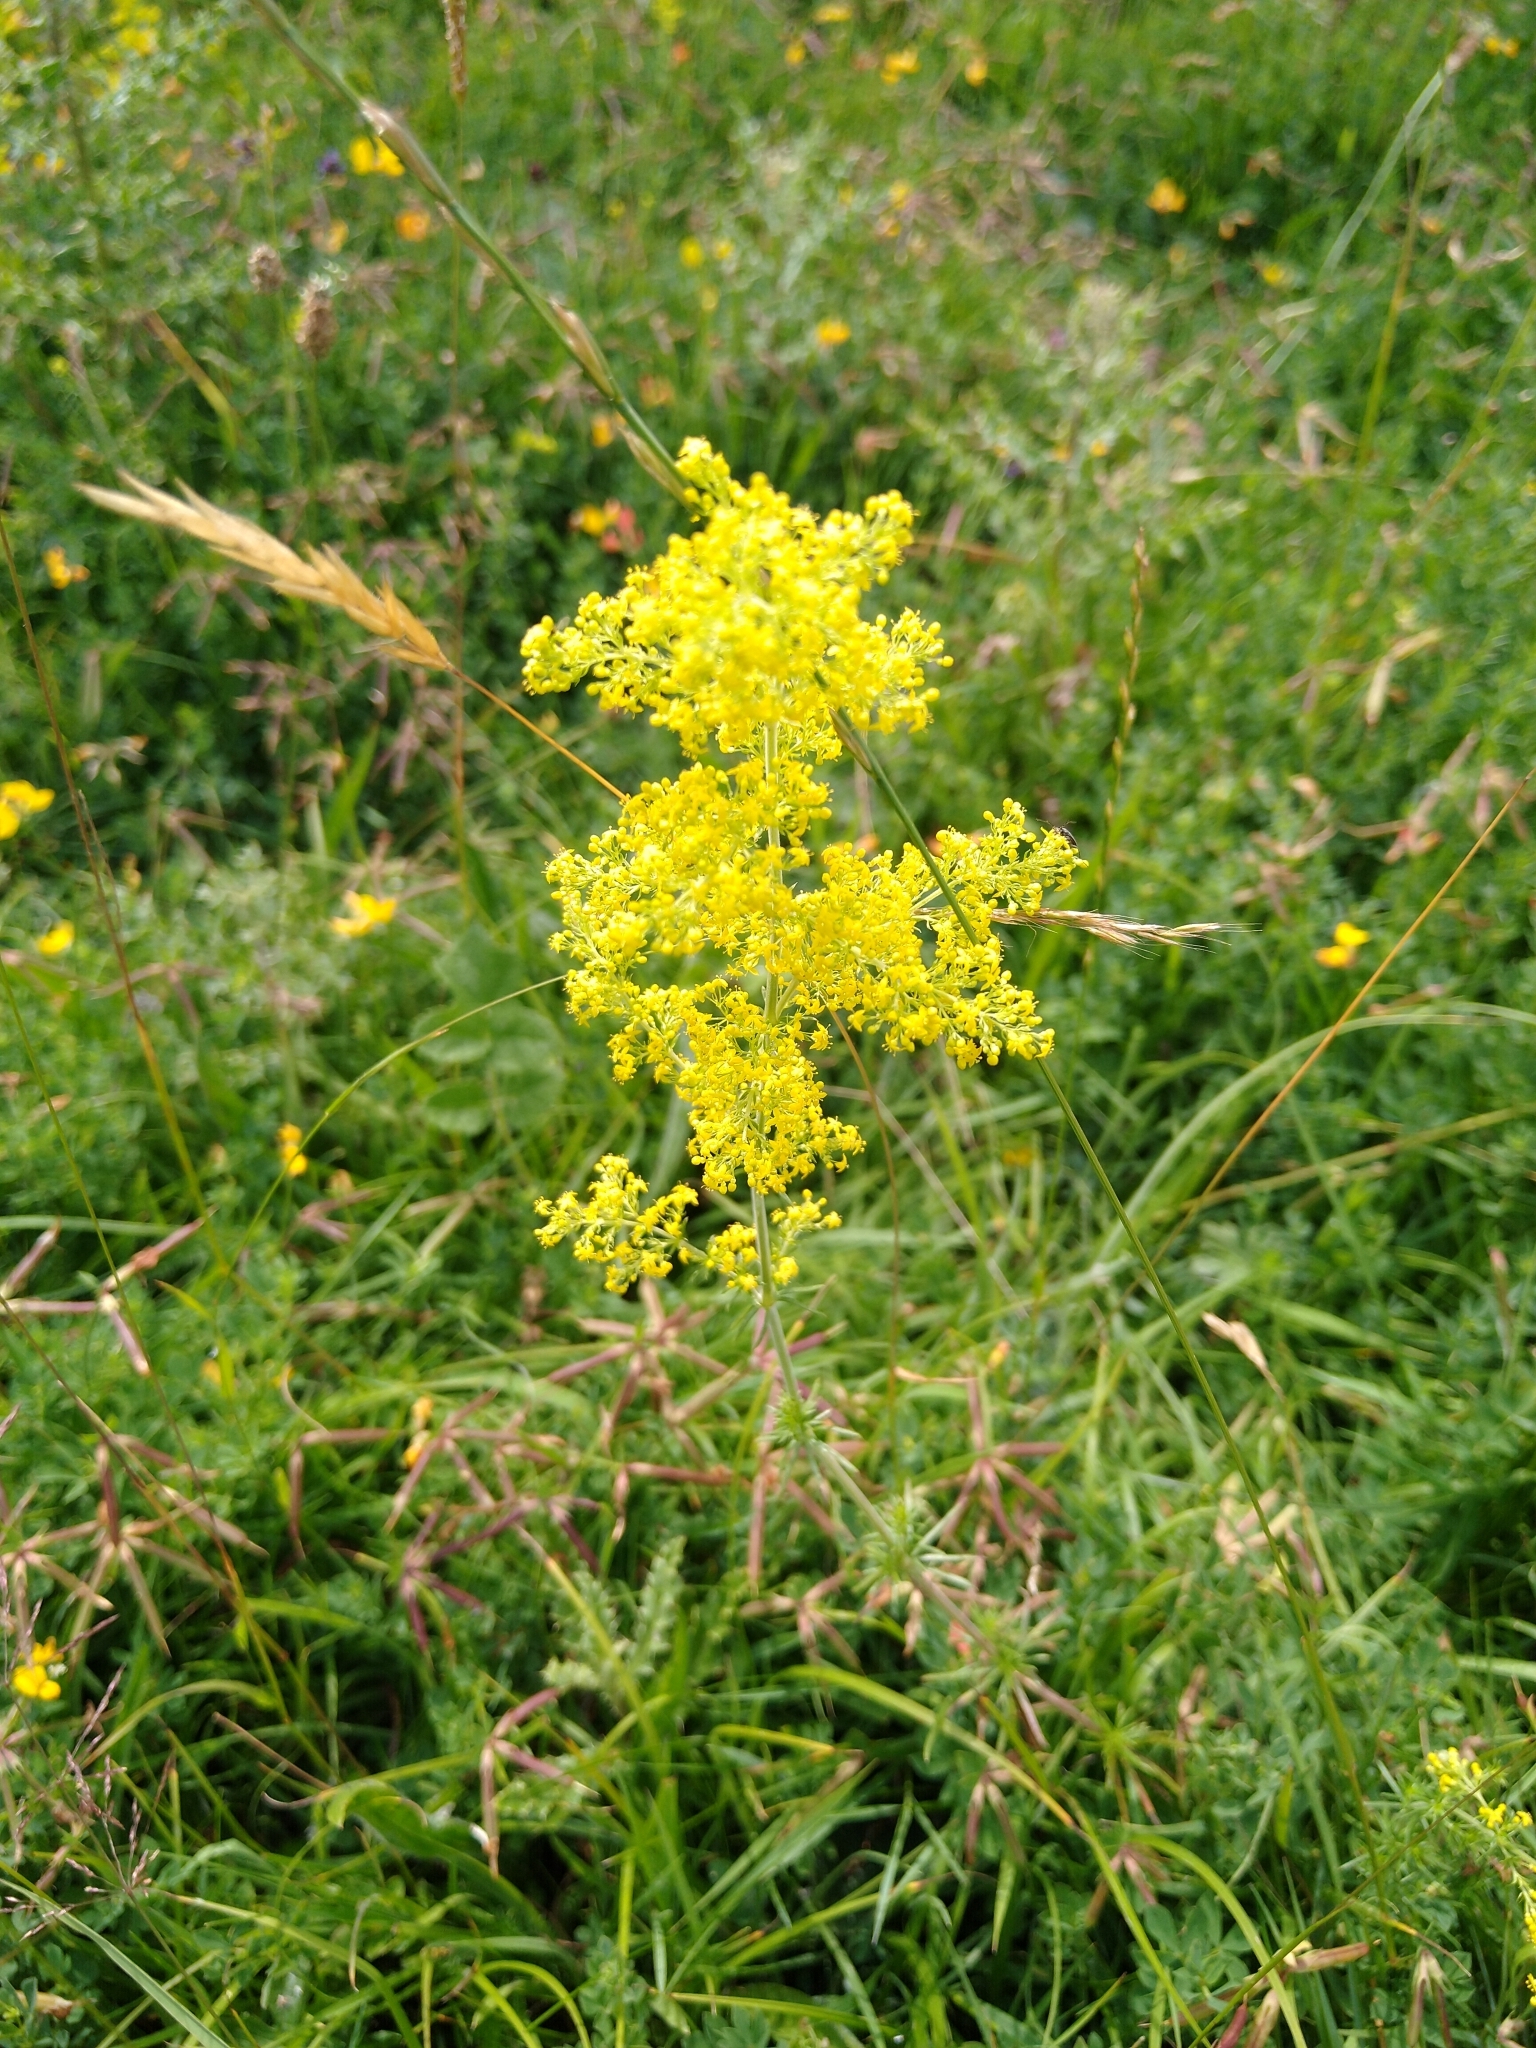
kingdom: Plantae
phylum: Tracheophyta
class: Magnoliopsida
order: Gentianales
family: Rubiaceae
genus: Galium
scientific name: Galium verum
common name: Lady's bedstraw
